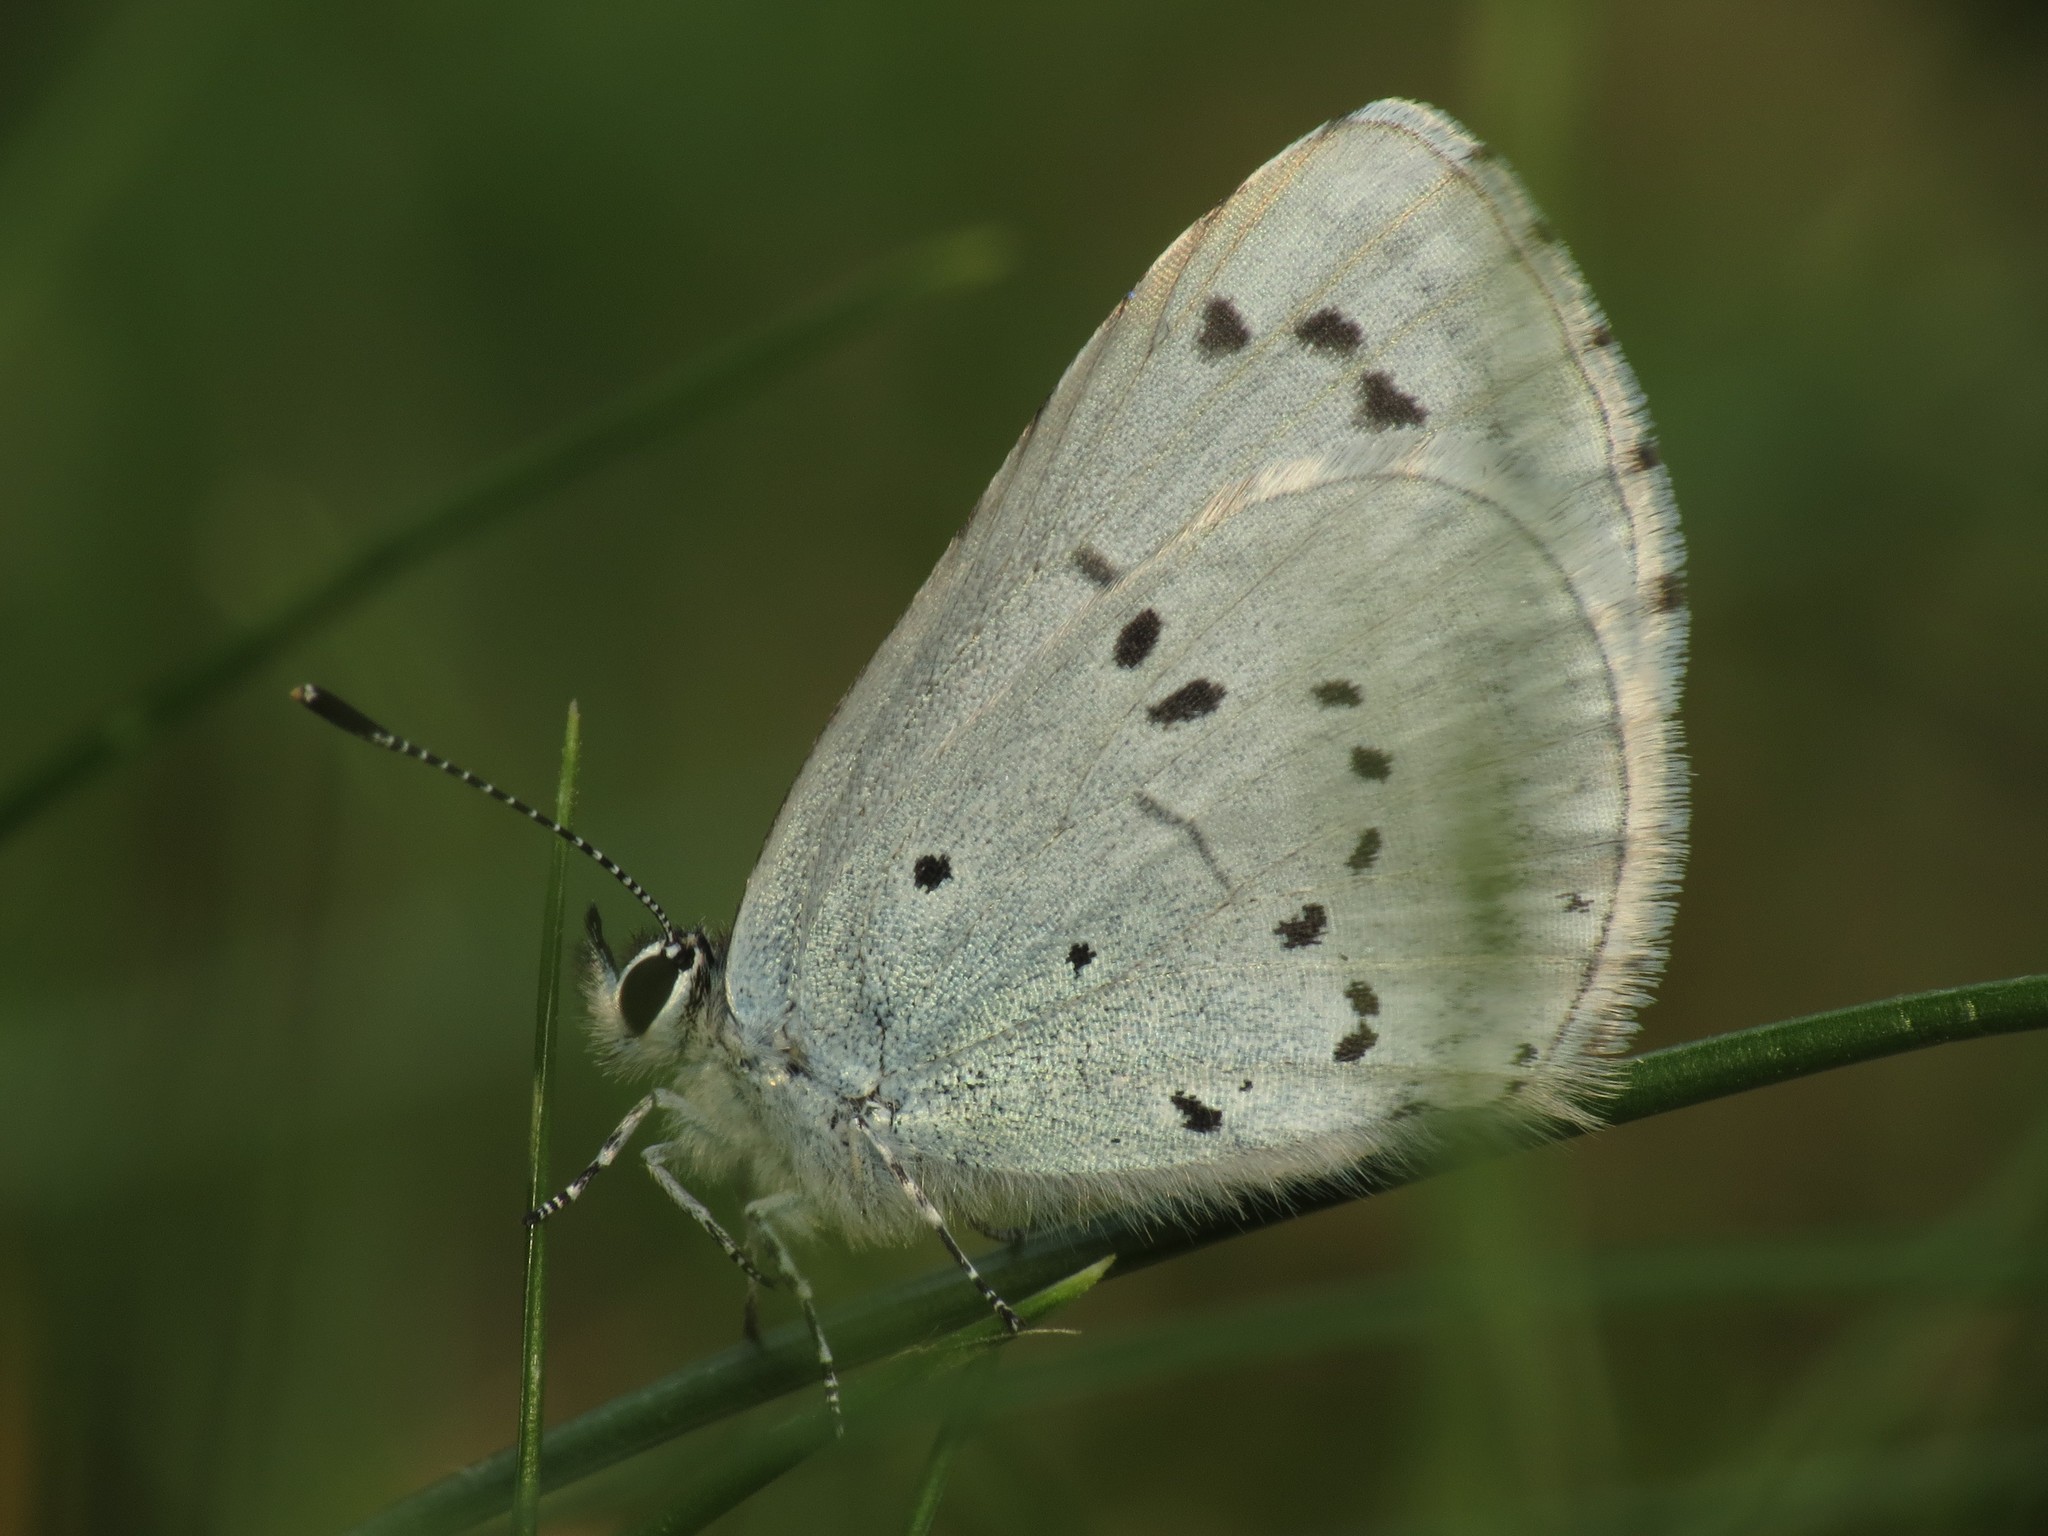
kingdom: Animalia
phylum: Arthropoda
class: Insecta
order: Lepidoptera
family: Lycaenidae
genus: Celastrina
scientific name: Celastrina argiolus
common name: Holly blue
